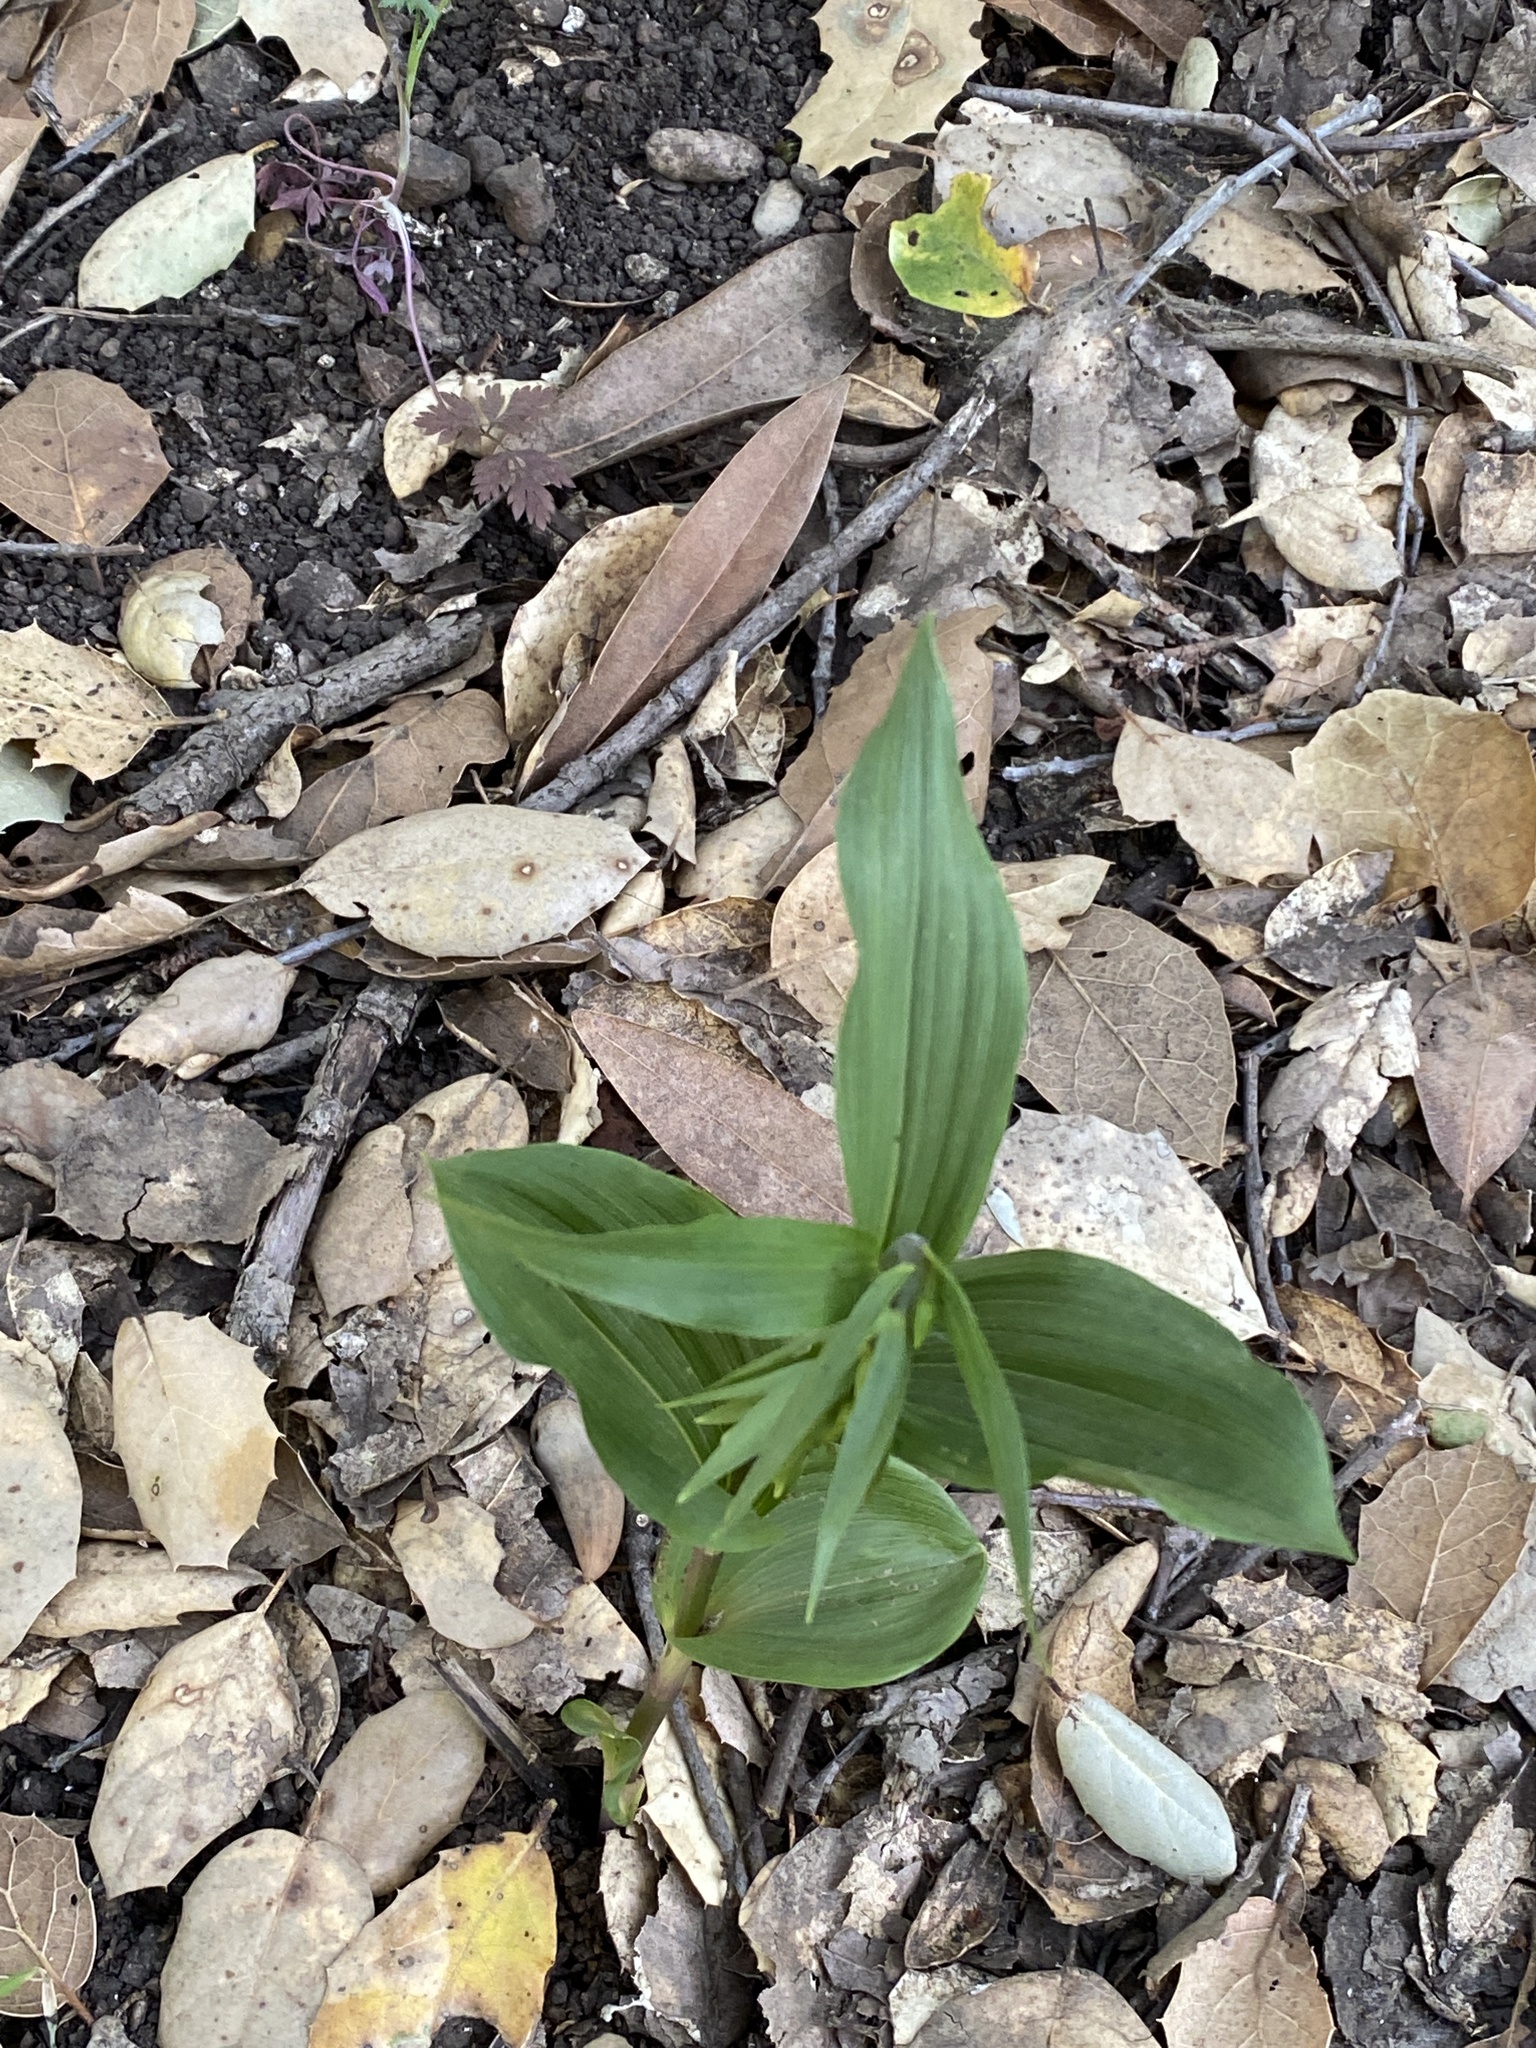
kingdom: Plantae
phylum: Tracheophyta
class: Liliopsida
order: Asparagales
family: Orchidaceae
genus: Epipactis
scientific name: Epipactis helleborine
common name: Broad-leaved helleborine
